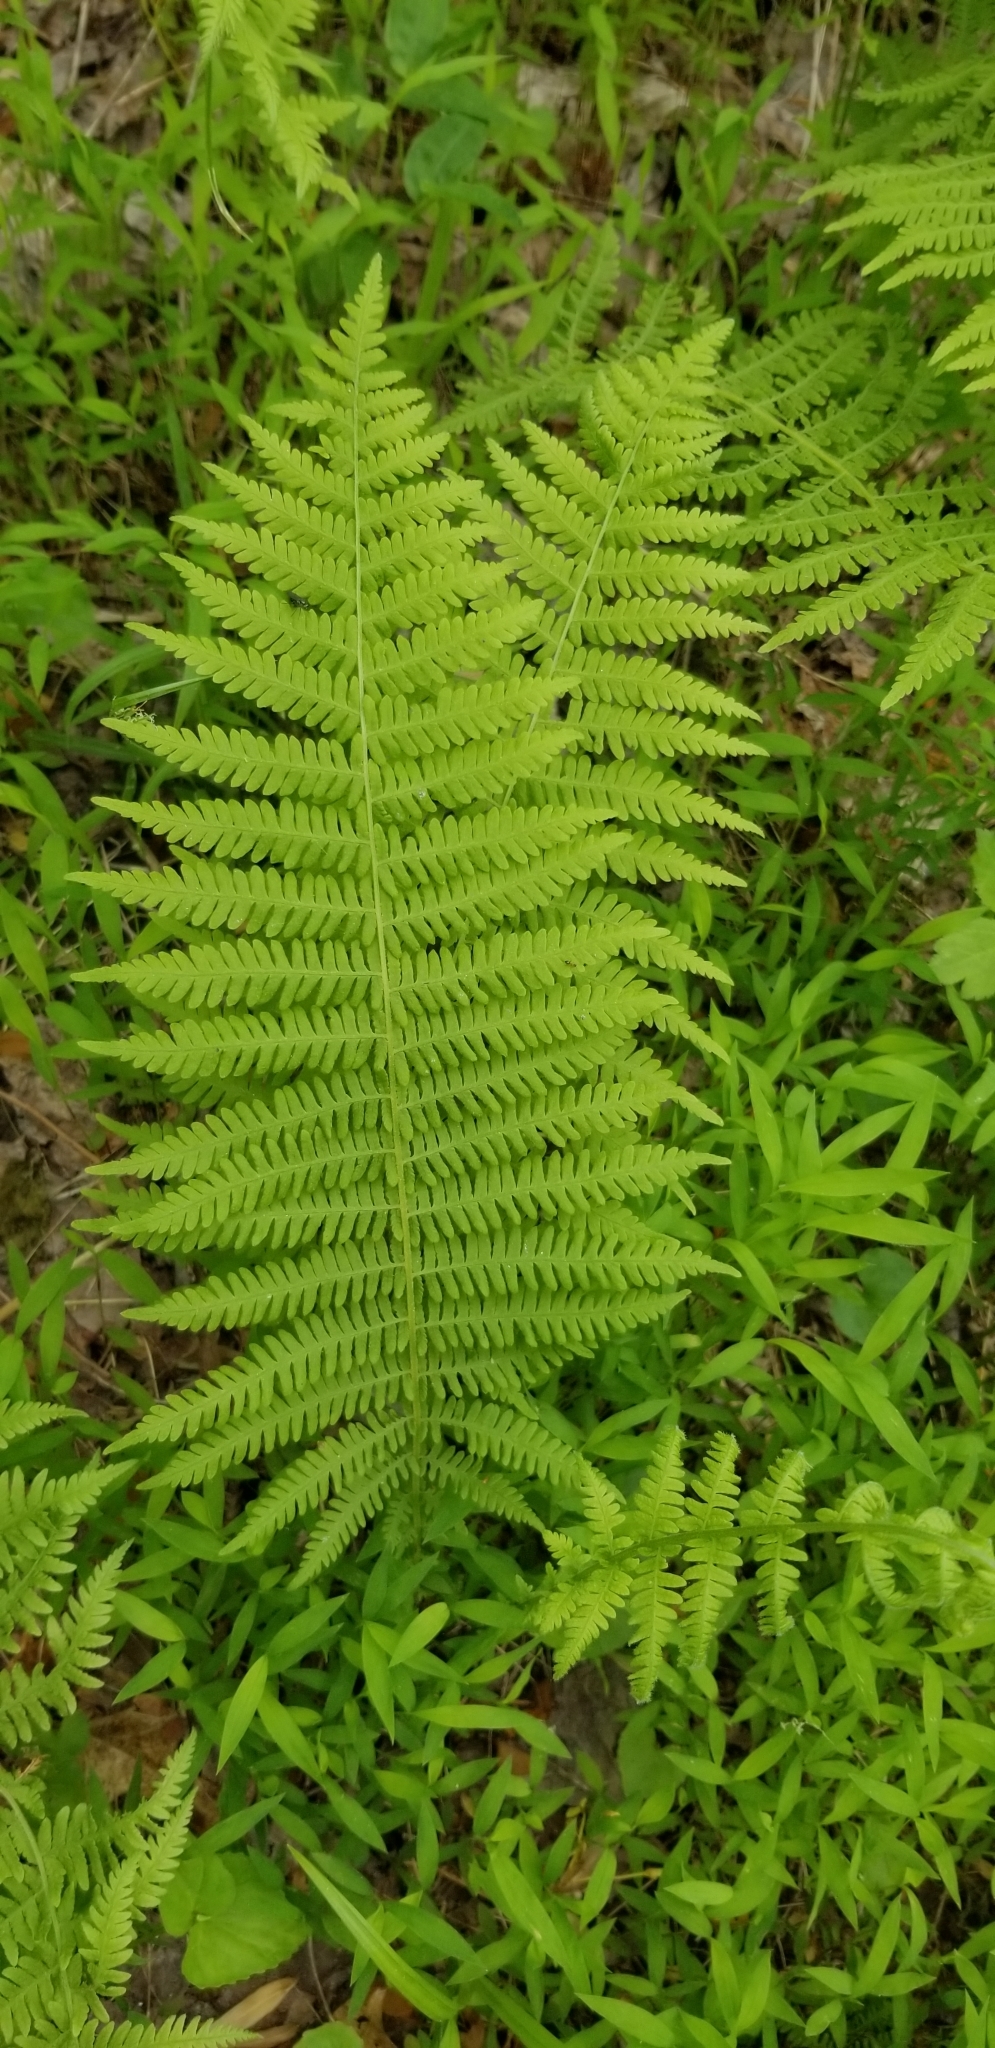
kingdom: Plantae
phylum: Tracheophyta
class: Polypodiopsida
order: Polypodiales
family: Thelypteridaceae
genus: Amauropelta
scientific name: Amauropelta noveboracensis
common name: New york fern
